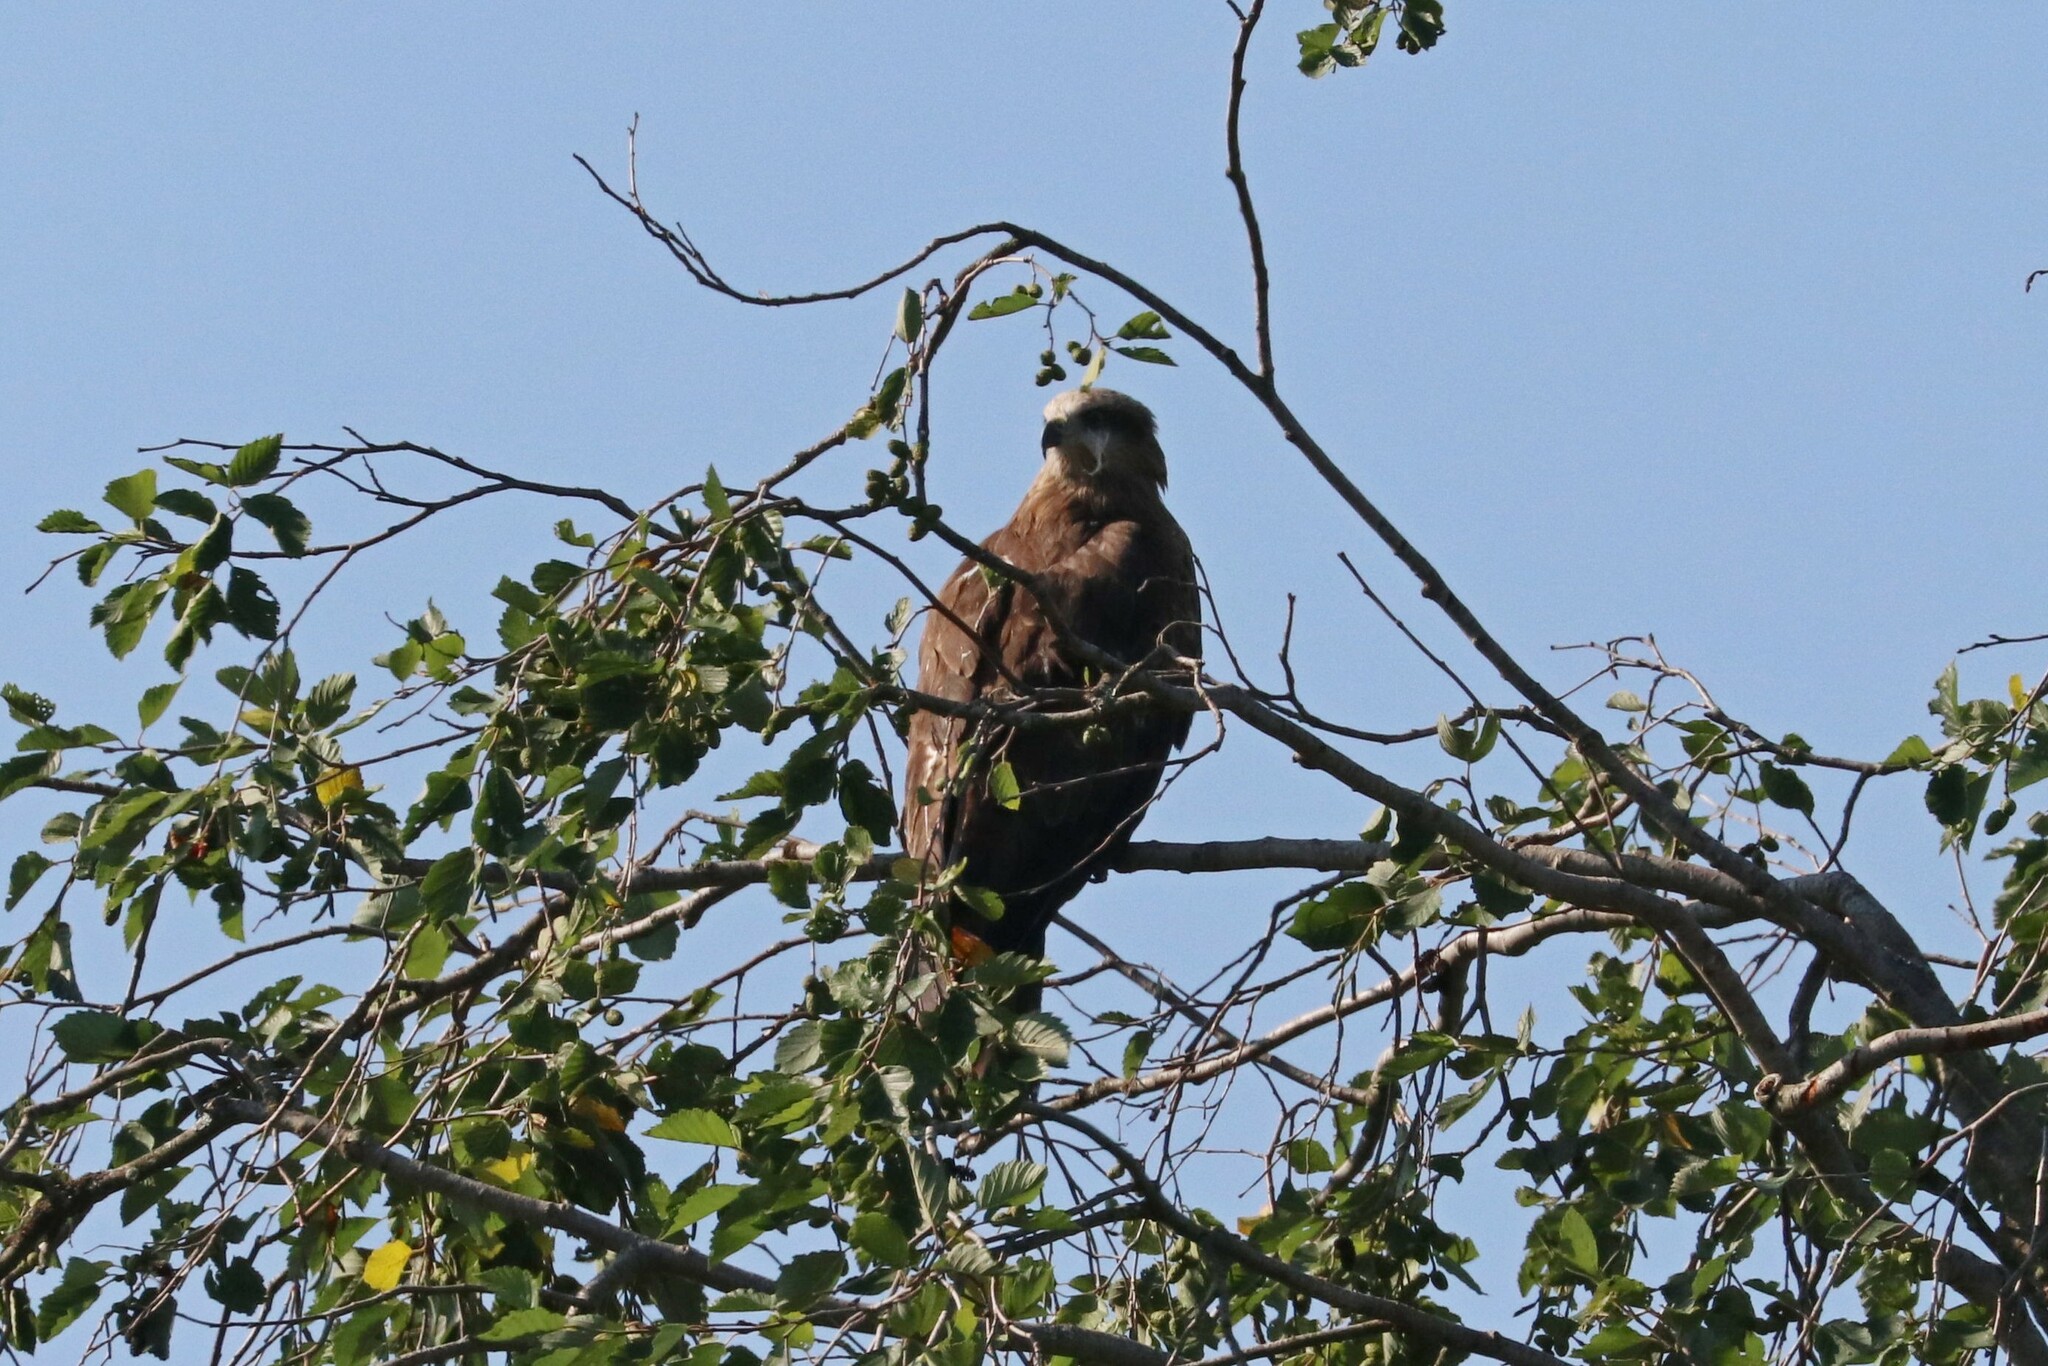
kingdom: Animalia
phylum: Chordata
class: Aves
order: Accipitriformes
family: Accipitridae
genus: Milvus
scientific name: Milvus migrans
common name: Black kite
